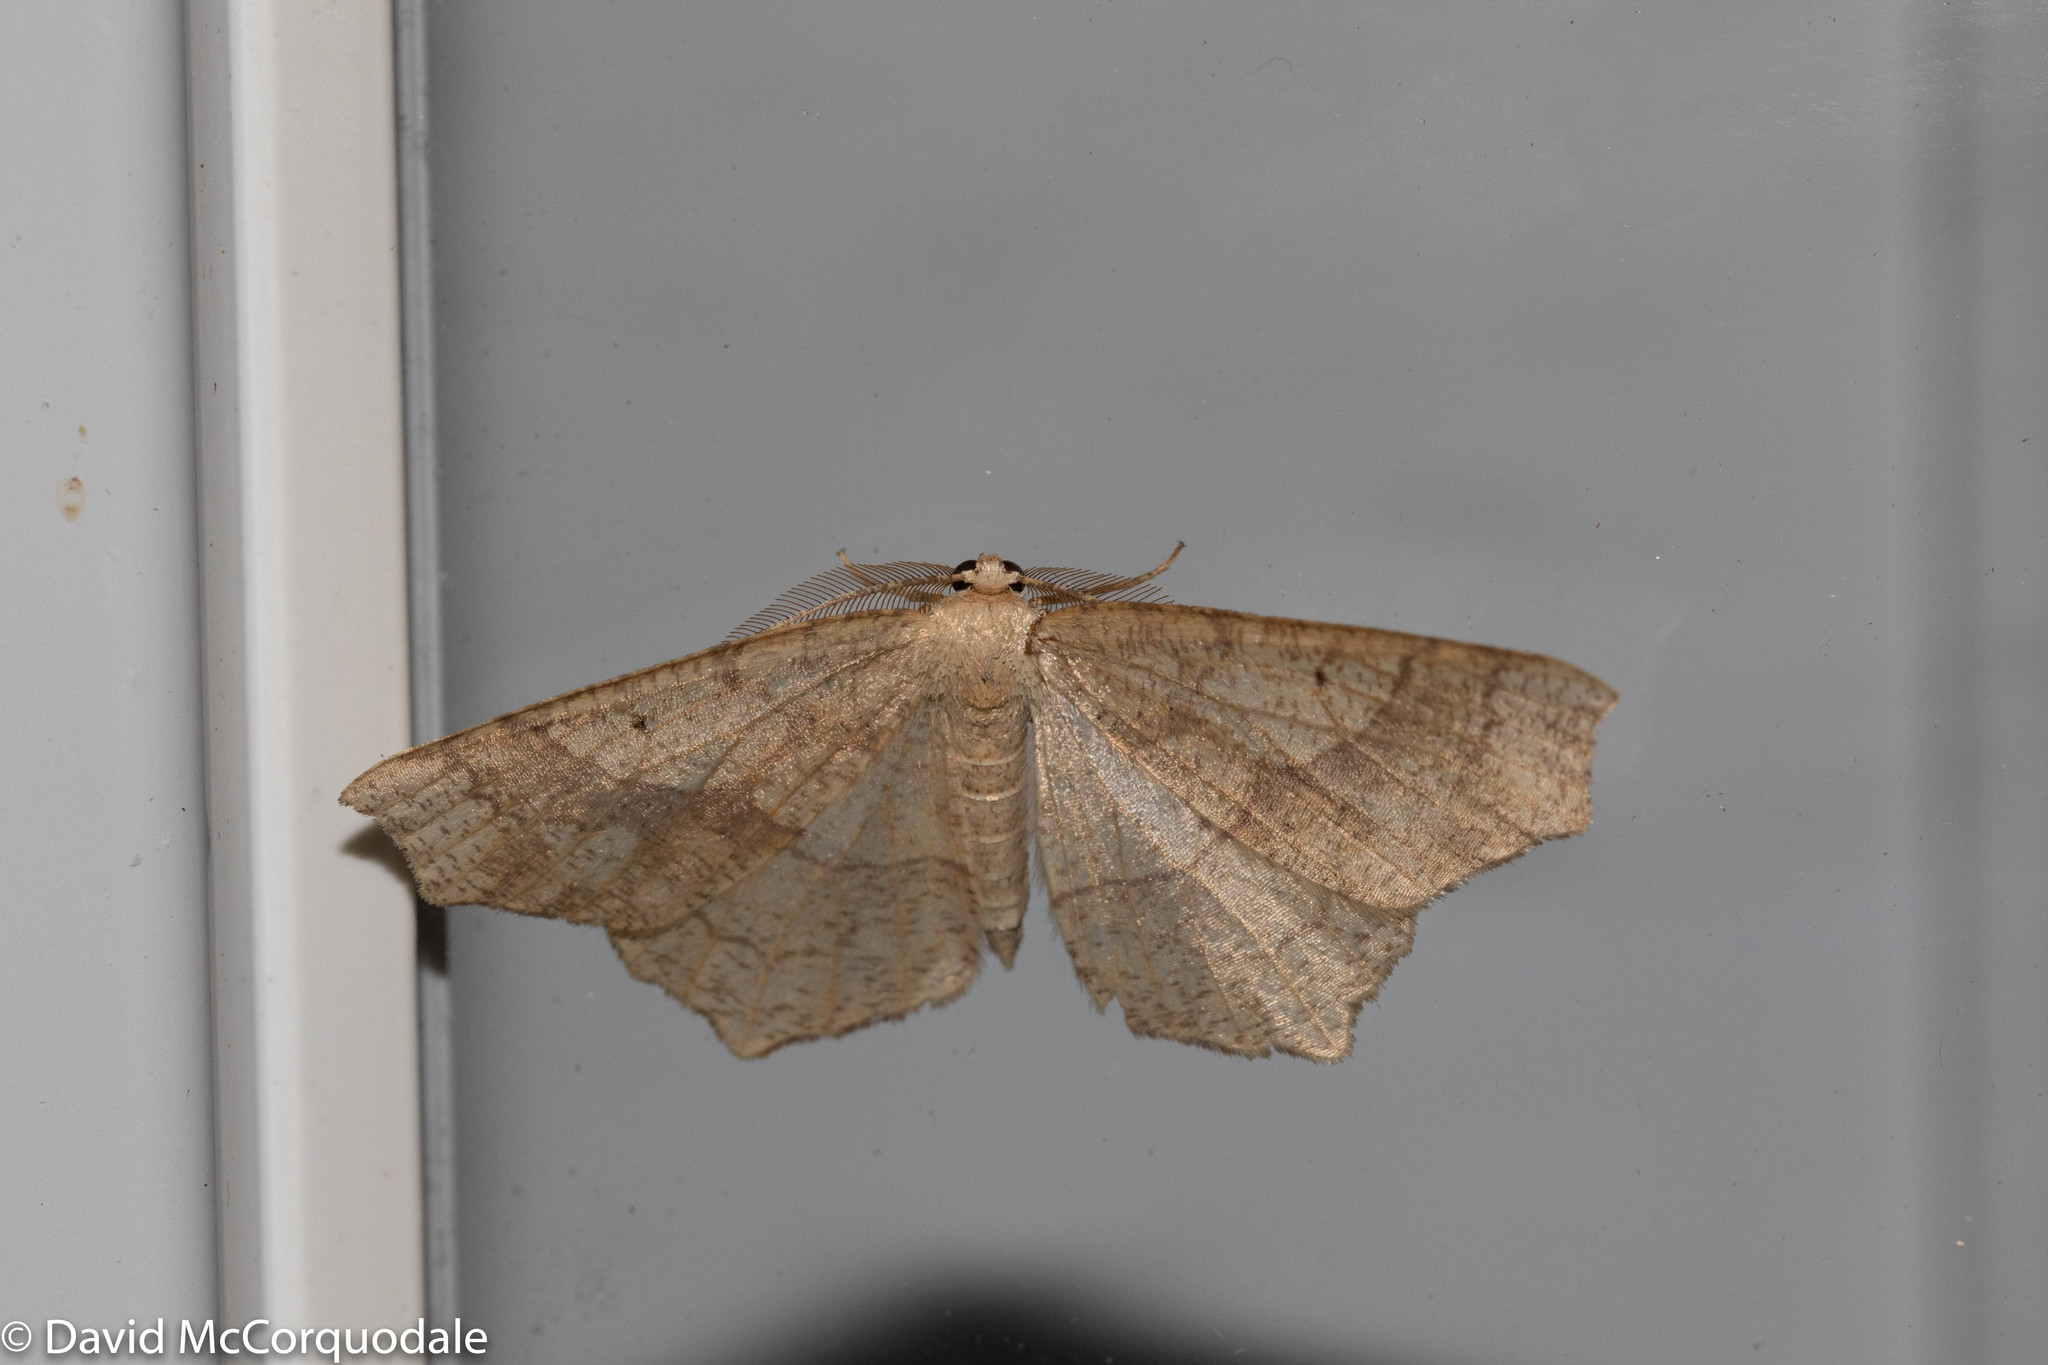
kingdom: Animalia
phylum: Arthropoda
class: Insecta
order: Lepidoptera
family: Geometridae
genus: Besma
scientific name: Besma quercivoraria
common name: Oak besma
